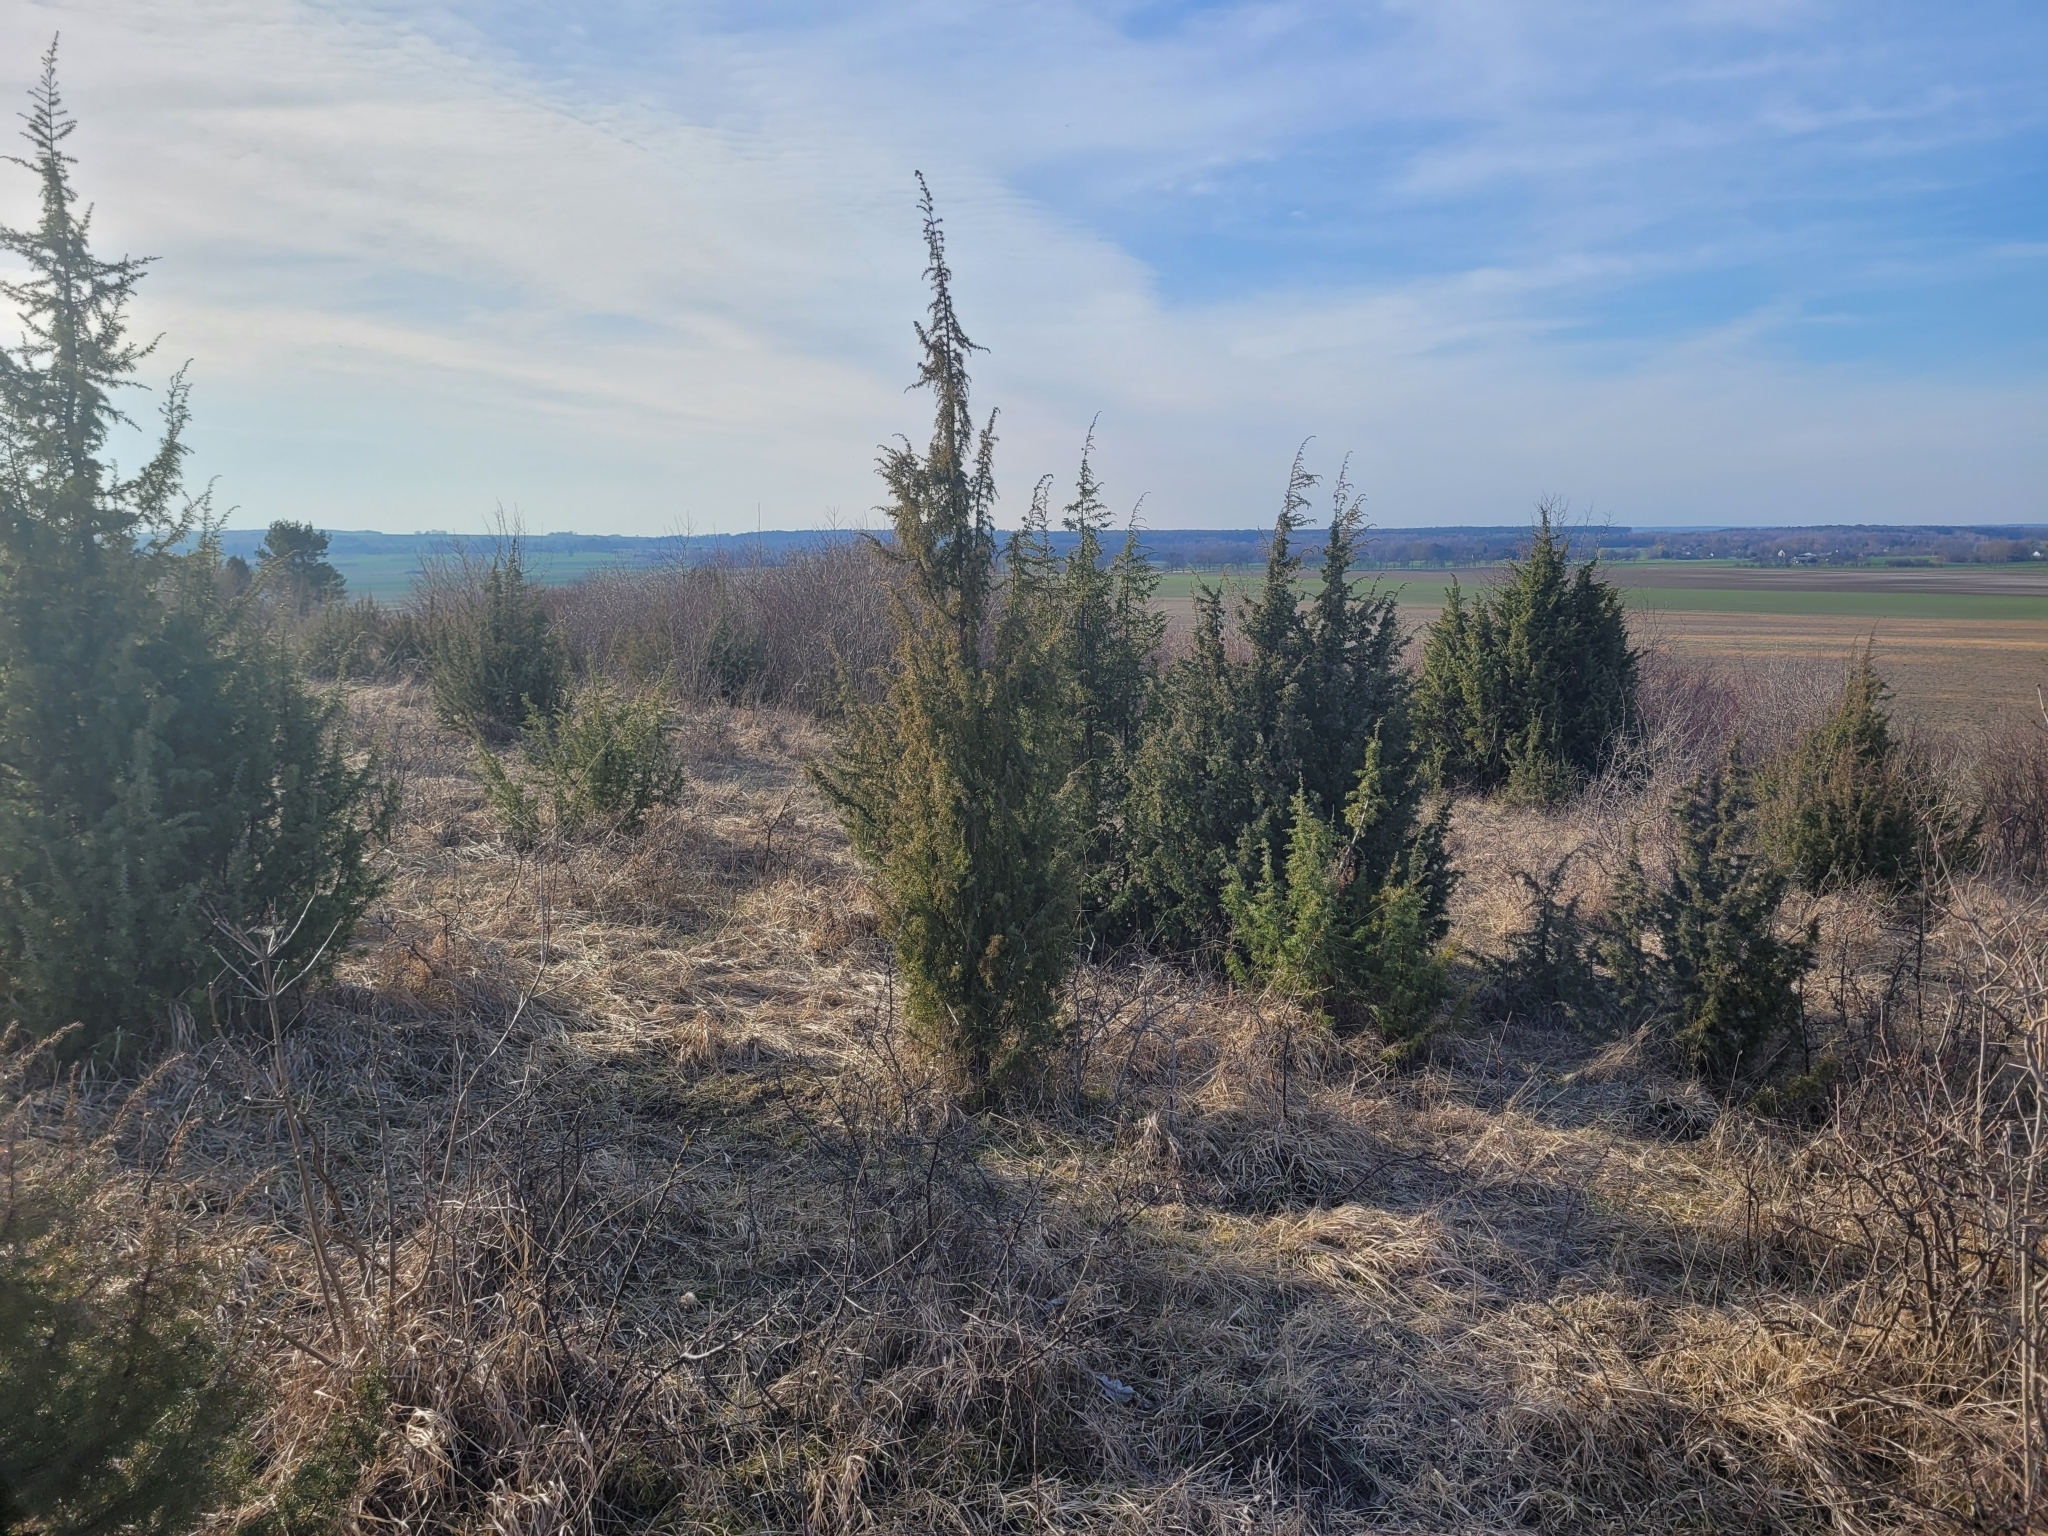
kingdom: Plantae
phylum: Tracheophyta
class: Pinopsida
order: Pinales
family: Cupressaceae
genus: Juniperus
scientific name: Juniperus communis
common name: Common juniper
